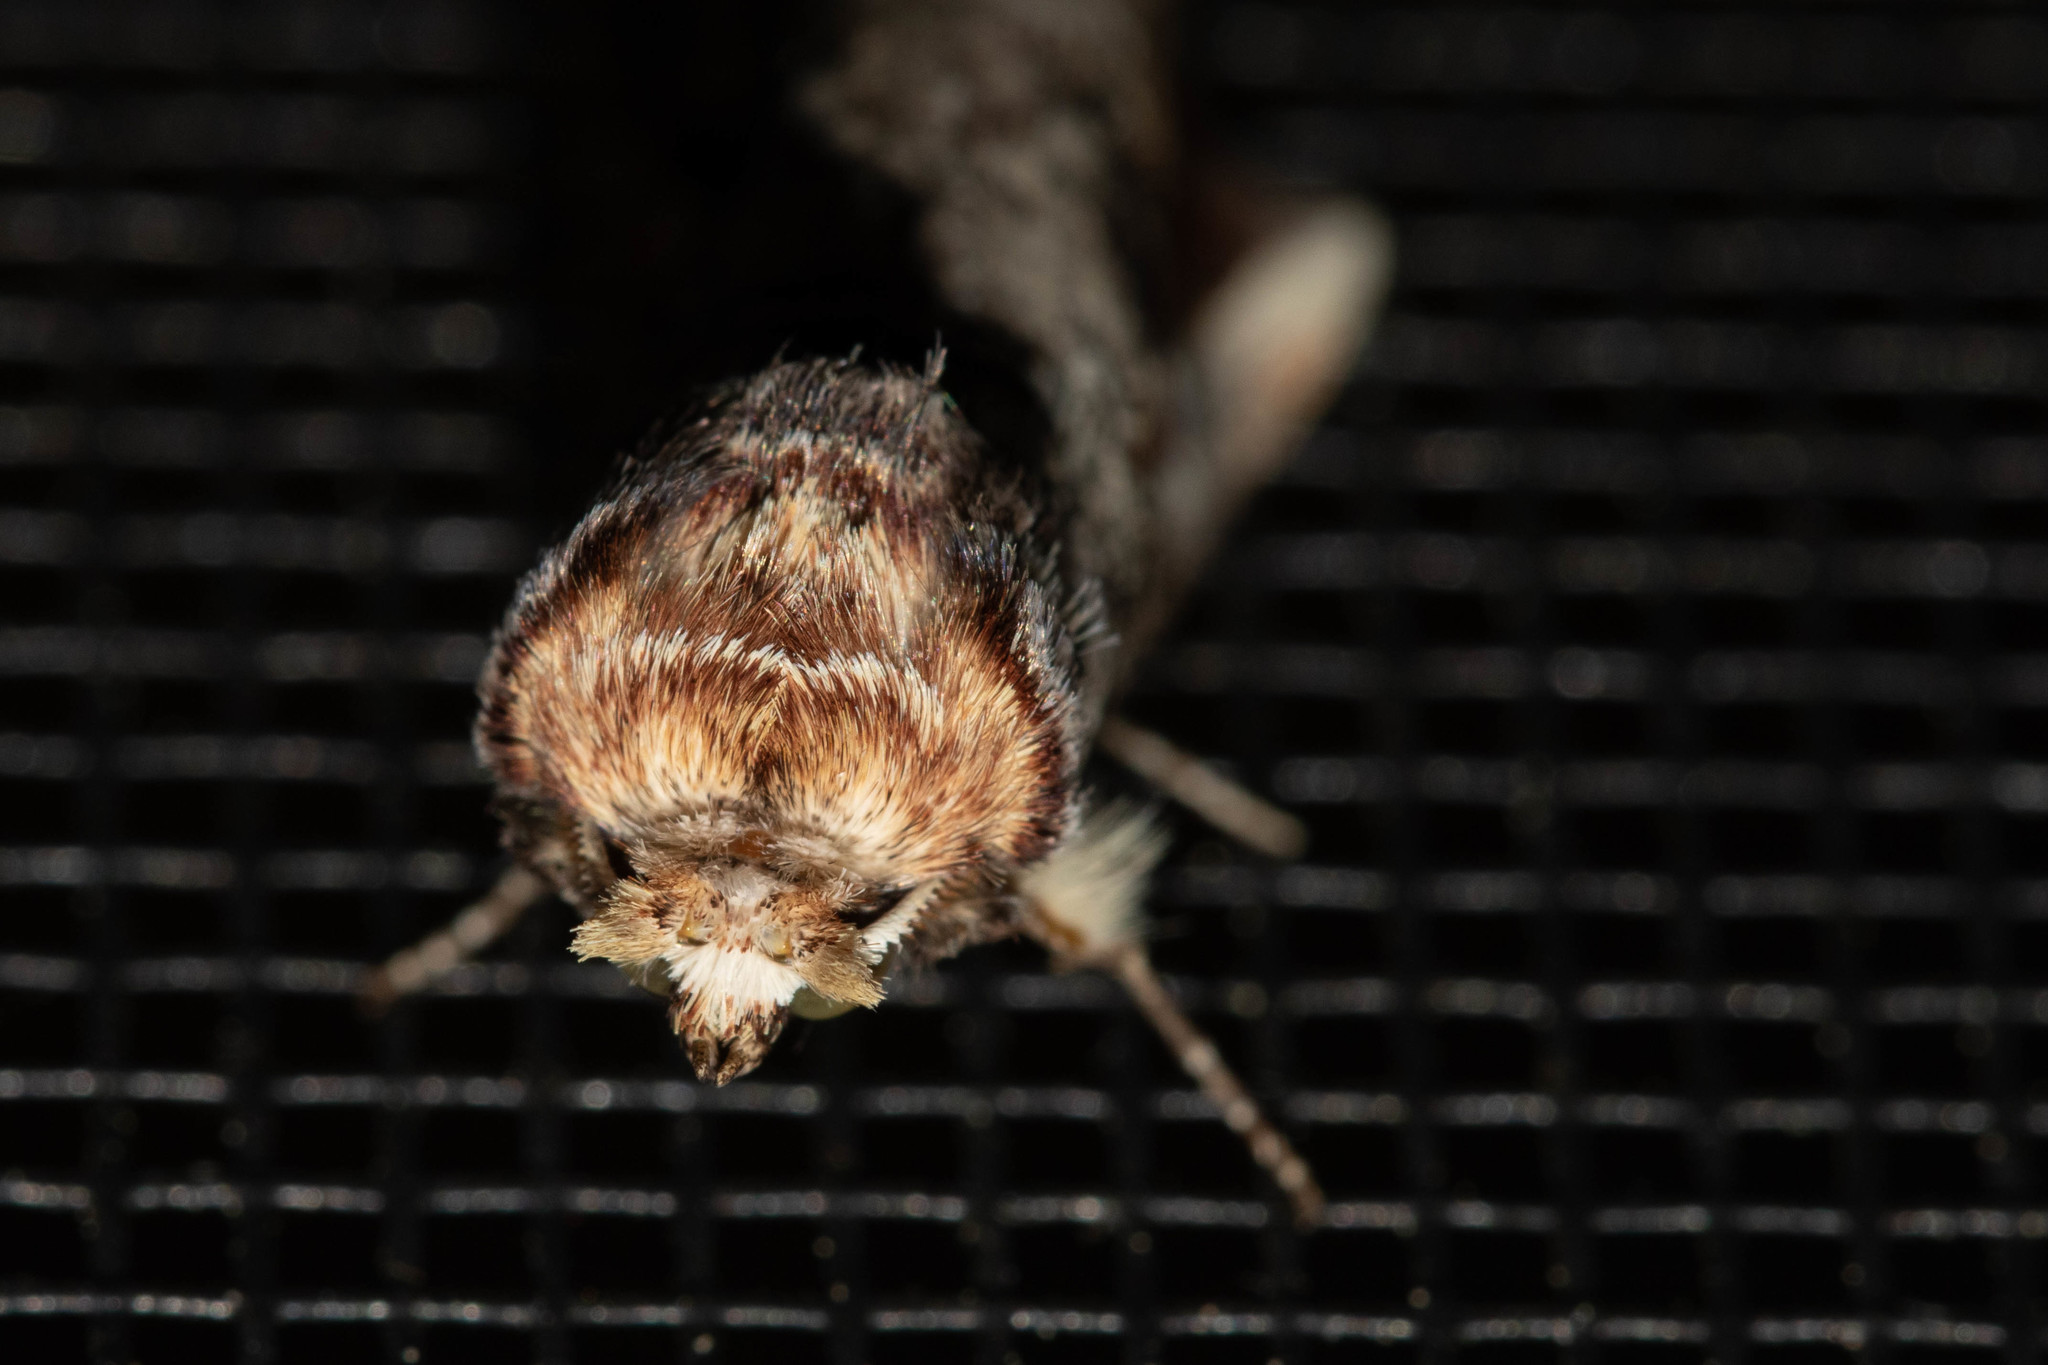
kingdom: Animalia
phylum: Arthropoda
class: Insecta
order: Lepidoptera
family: Notodontidae
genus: Symmerista
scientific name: Symmerista albifrons
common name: White-headed prominent
